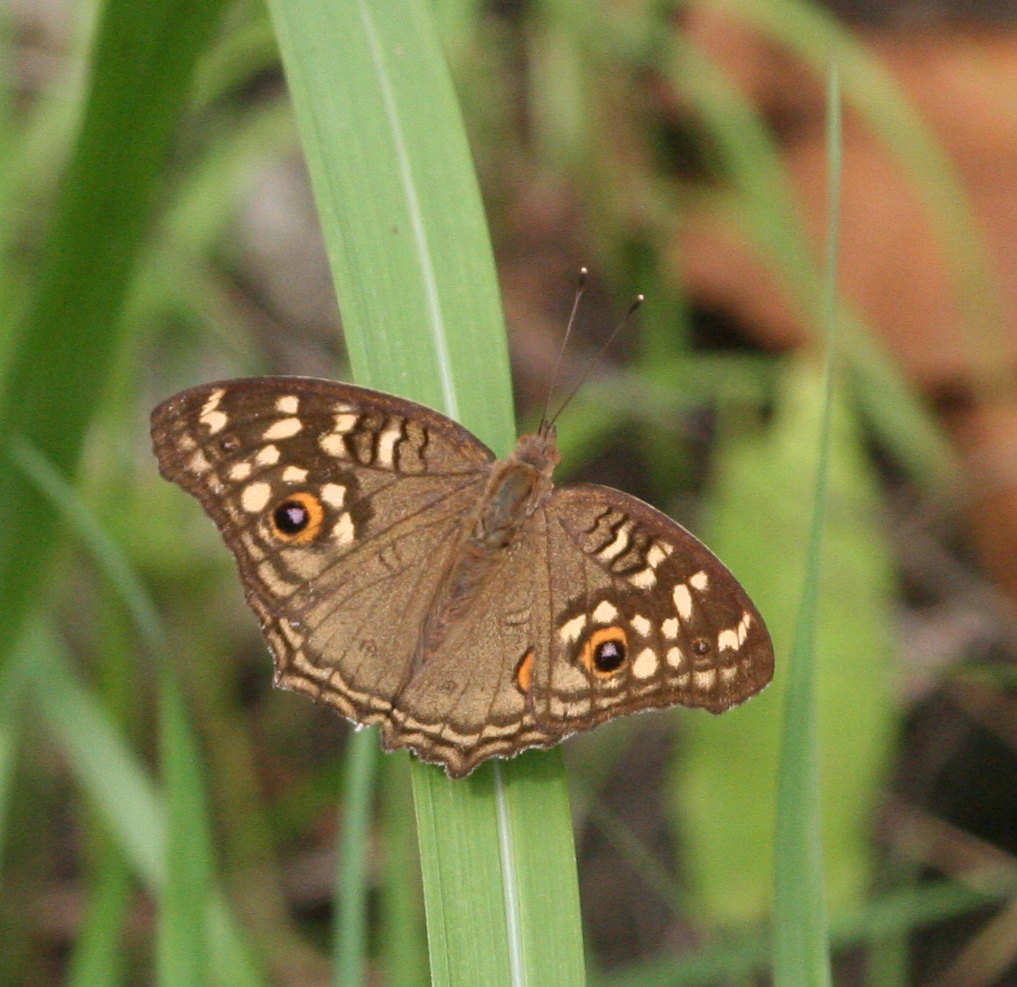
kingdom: Animalia
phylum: Arthropoda
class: Insecta
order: Lepidoptera
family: Nymphalidae
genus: Junonia
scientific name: Junonia lemonias
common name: Lemon pansy
